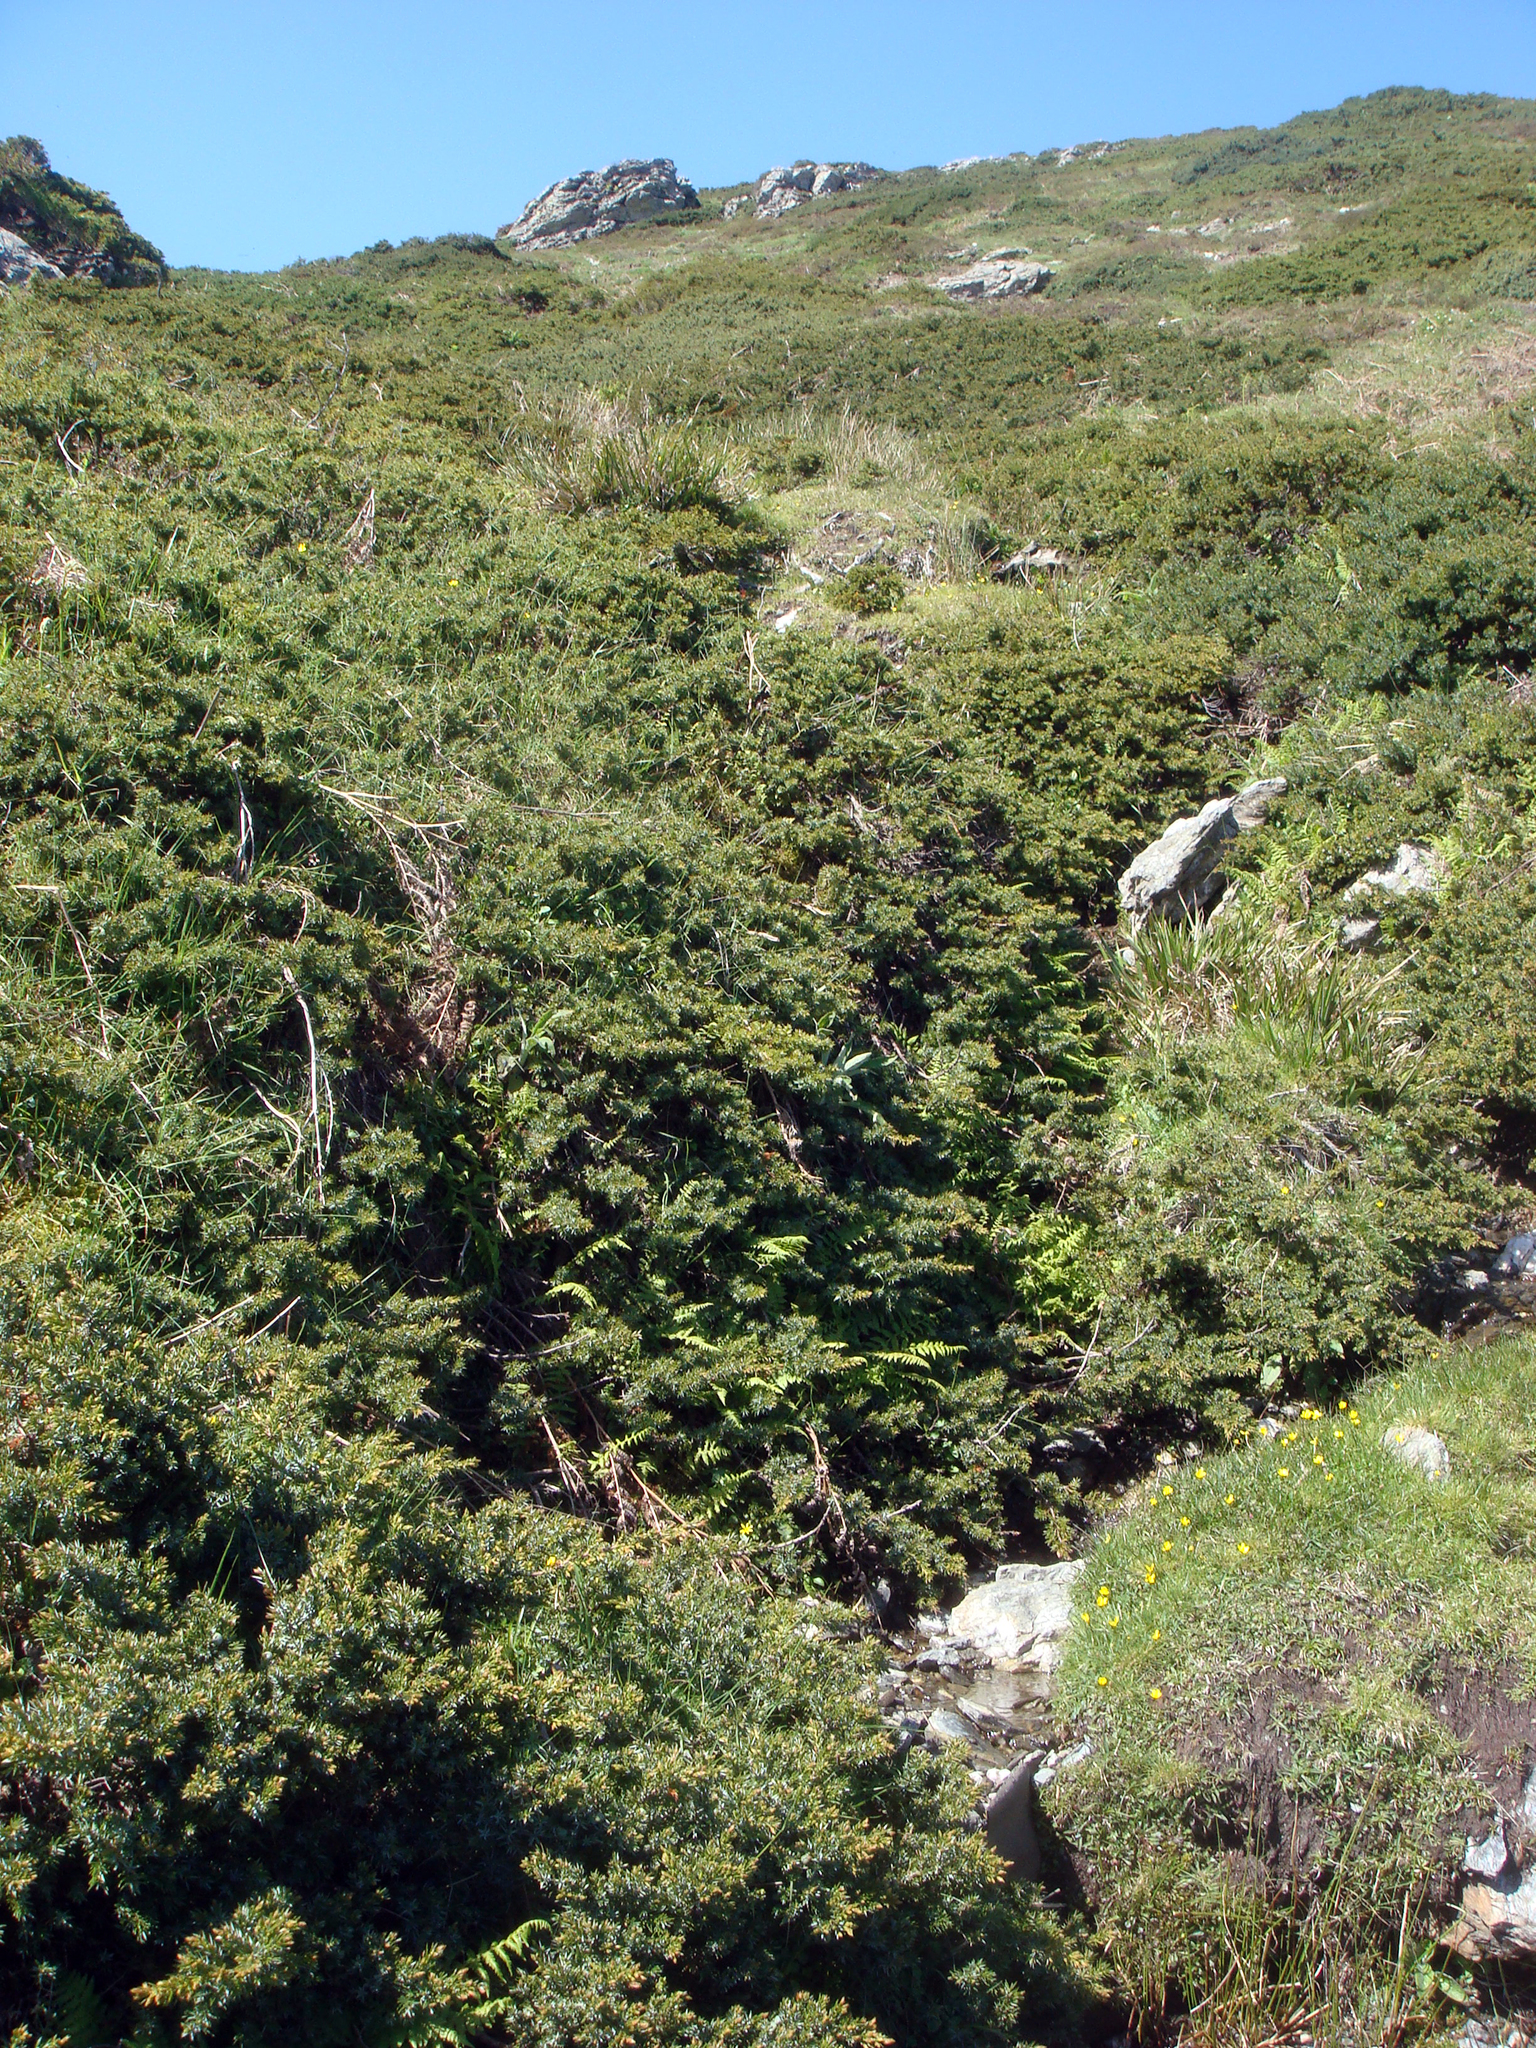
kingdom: Plantae
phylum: Tracheophyta
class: Pinopsida
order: Pinales
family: Cupressaceae
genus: Juniperus
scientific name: Juniperus communis
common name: Common juniper
